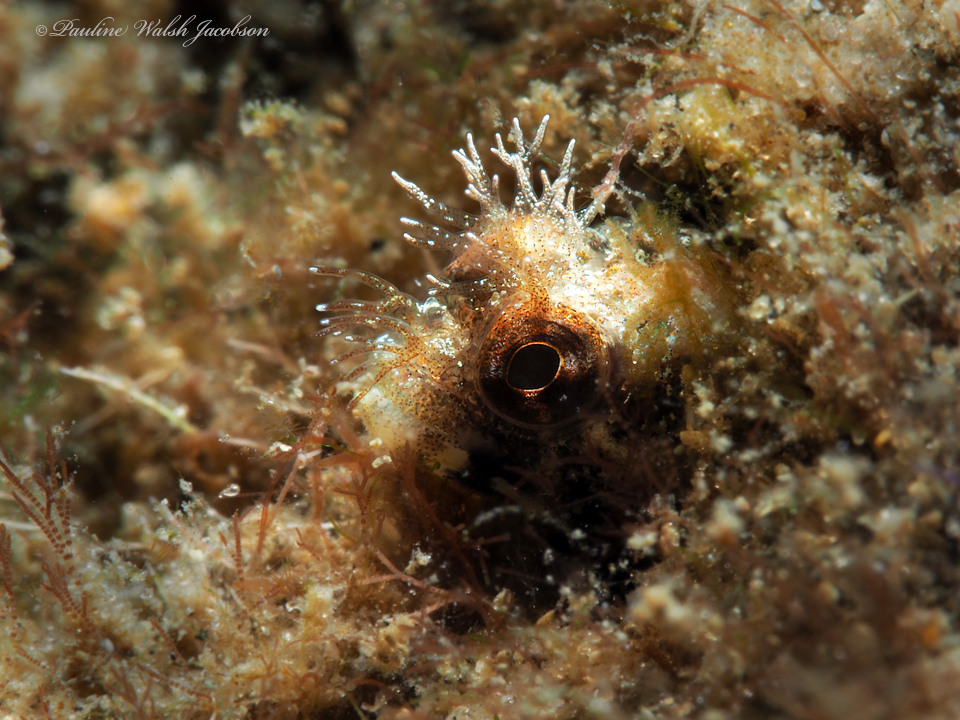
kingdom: Animalia
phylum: Chordata
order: Perciformes
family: Chaenopsidae
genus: Acanthemblemaria
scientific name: Acanthemblemaria aspera
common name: Roughhead blenny
